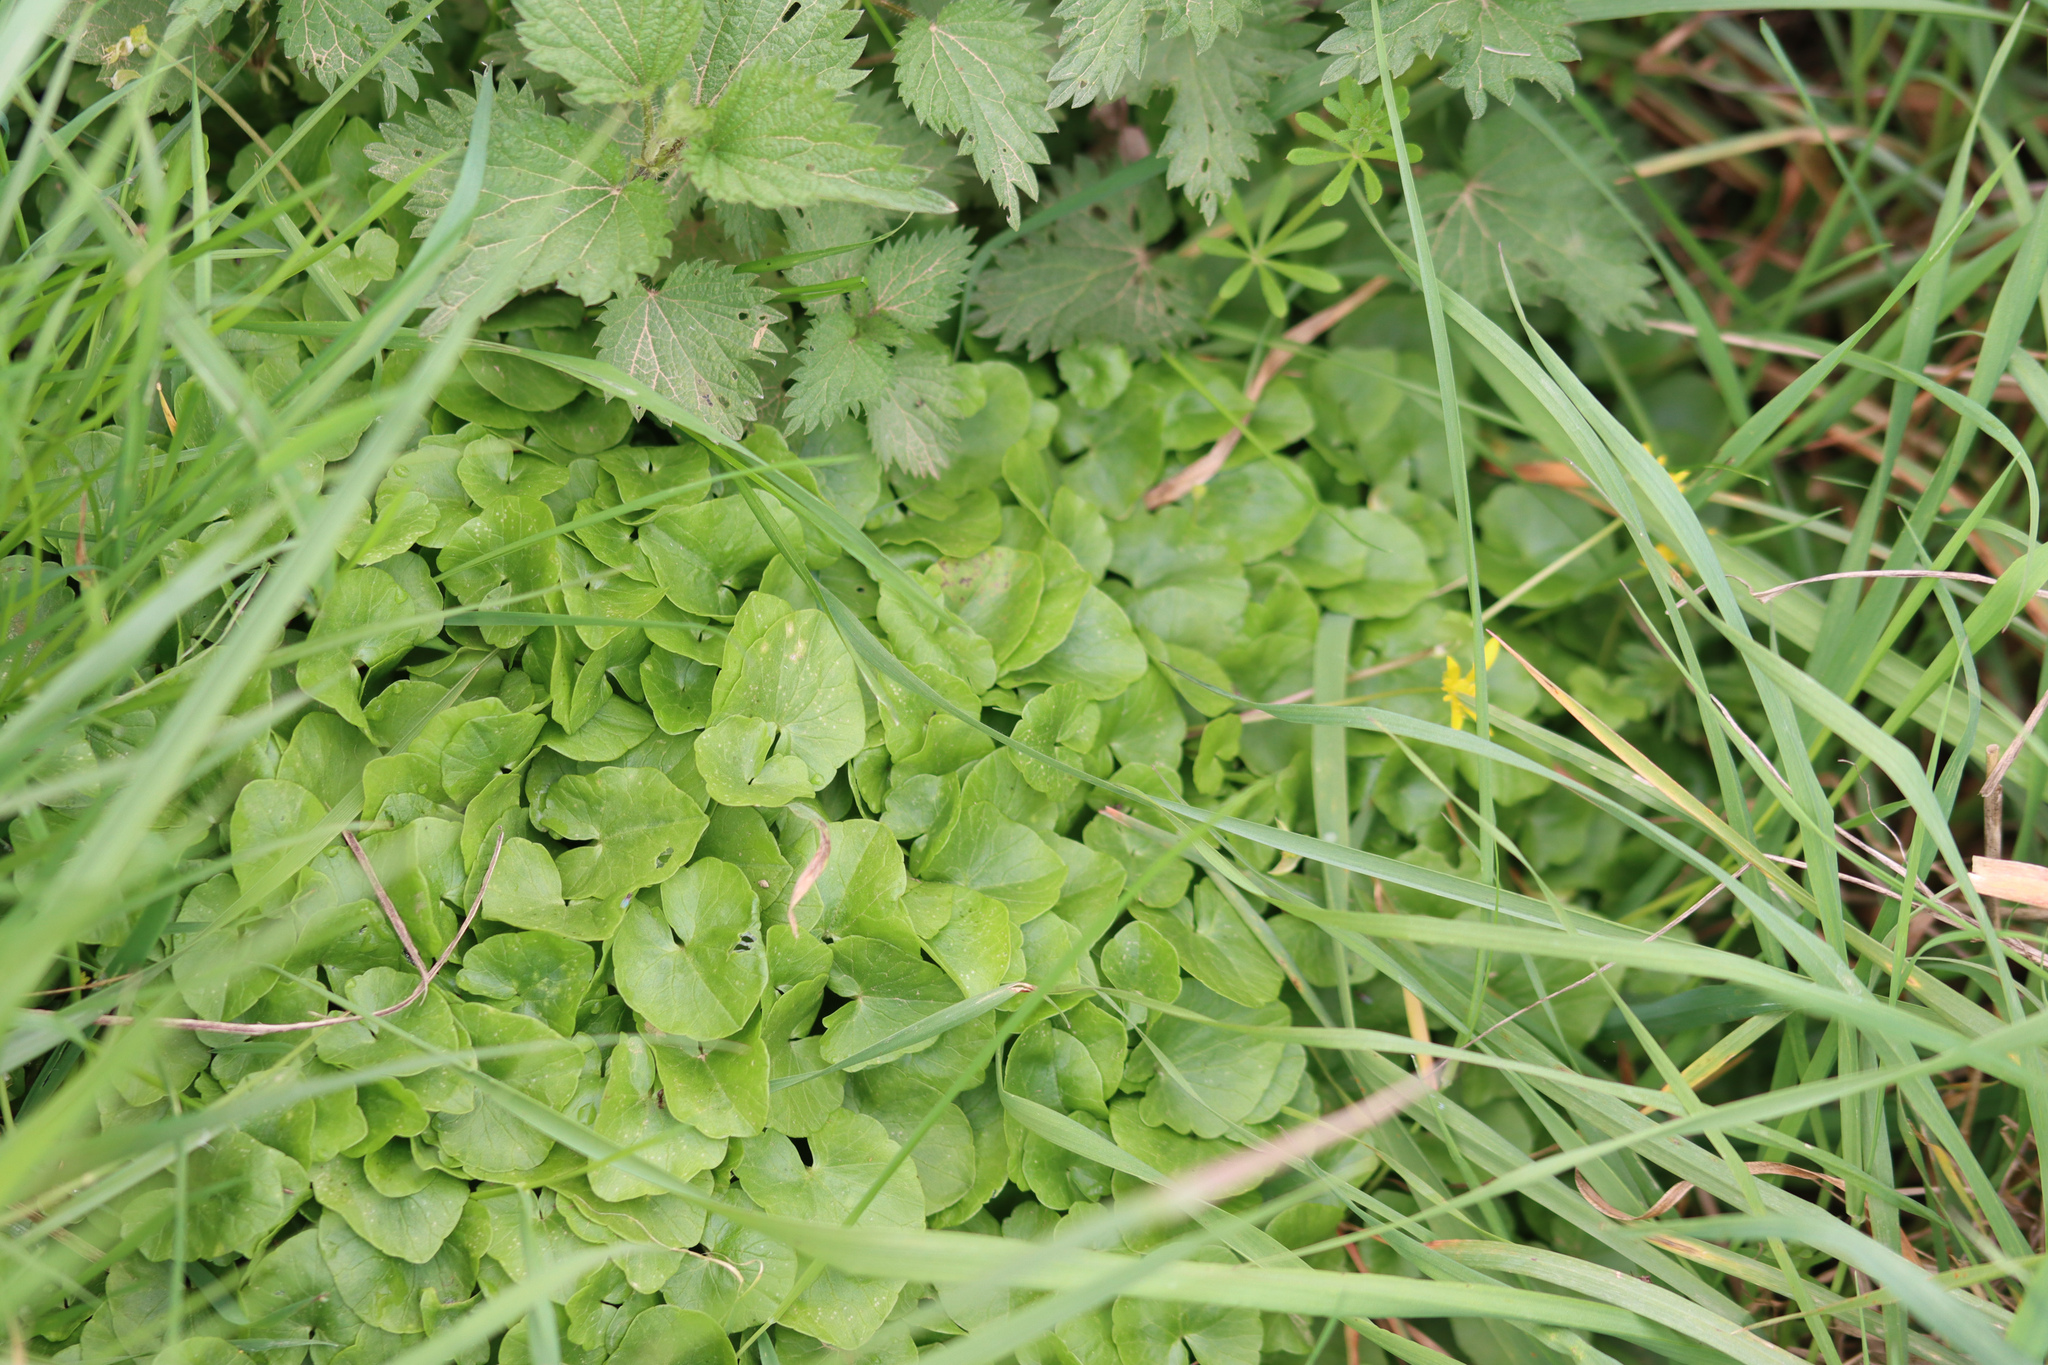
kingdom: Plantae
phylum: Tracheophyta
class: Magnoliopsida
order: Ranunculales
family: Ranunculaceae
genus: Ficaria
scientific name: Ficaria verna
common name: Lesser celandine
